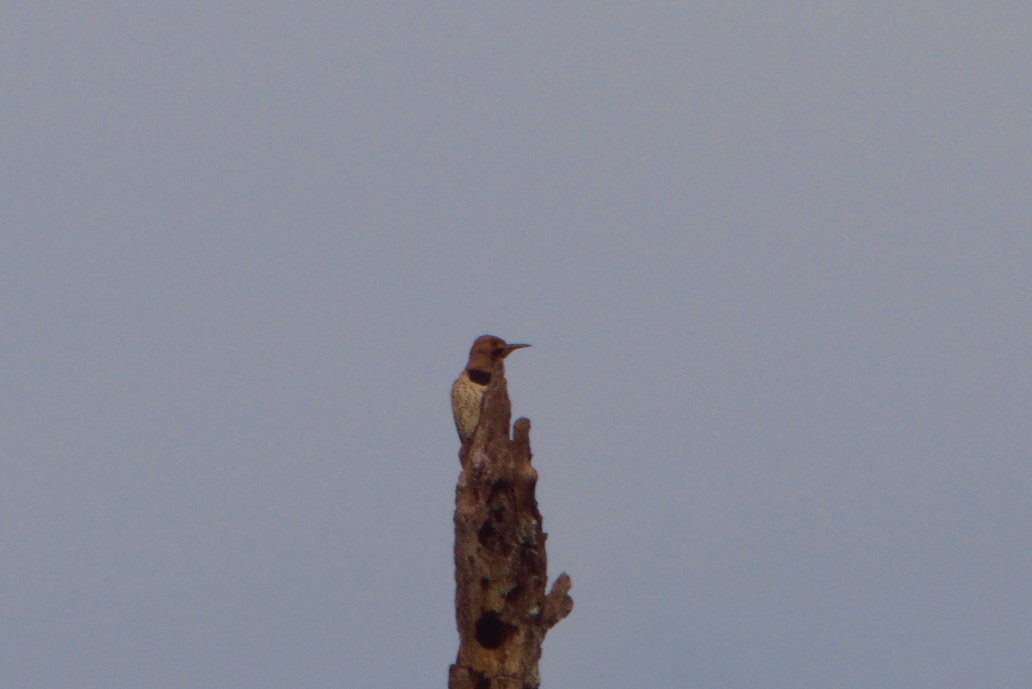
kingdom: Animalia
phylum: Chordata
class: Aves
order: Piciformes
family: Picidae
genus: Colaptes
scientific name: Colaptes auratus
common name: Northern flicker
